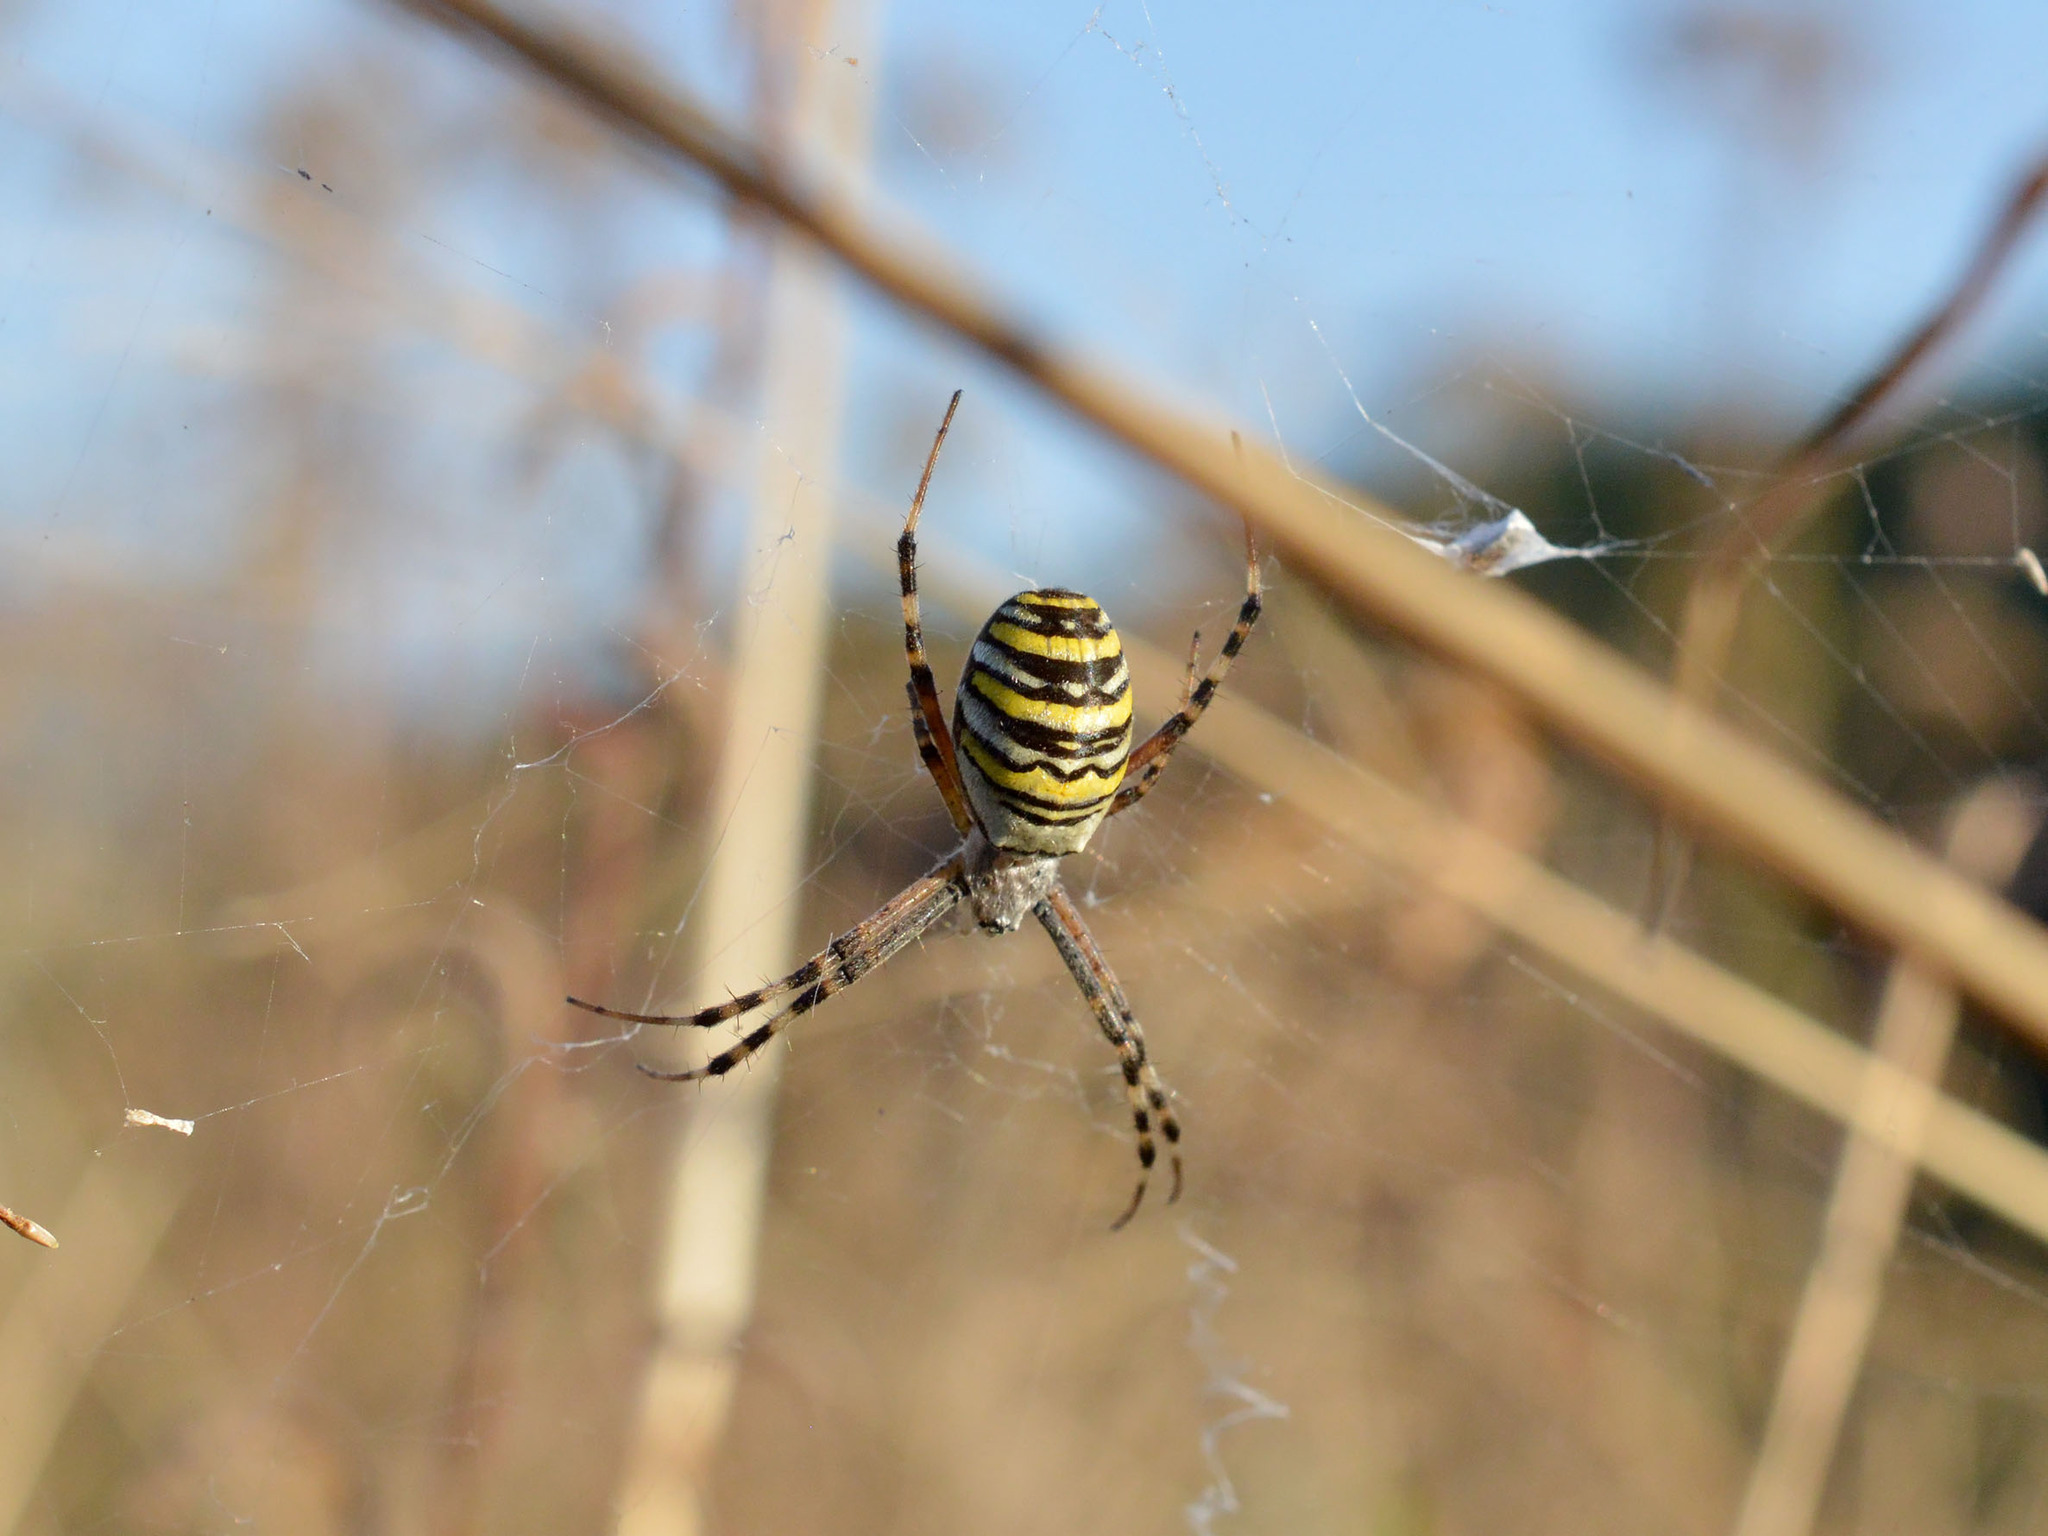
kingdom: Animalia
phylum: Arthropoda
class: Arachnida
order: Araneae
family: Araneidae
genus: Argiope
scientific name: Argiope bruennichi
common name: Wasp spider
